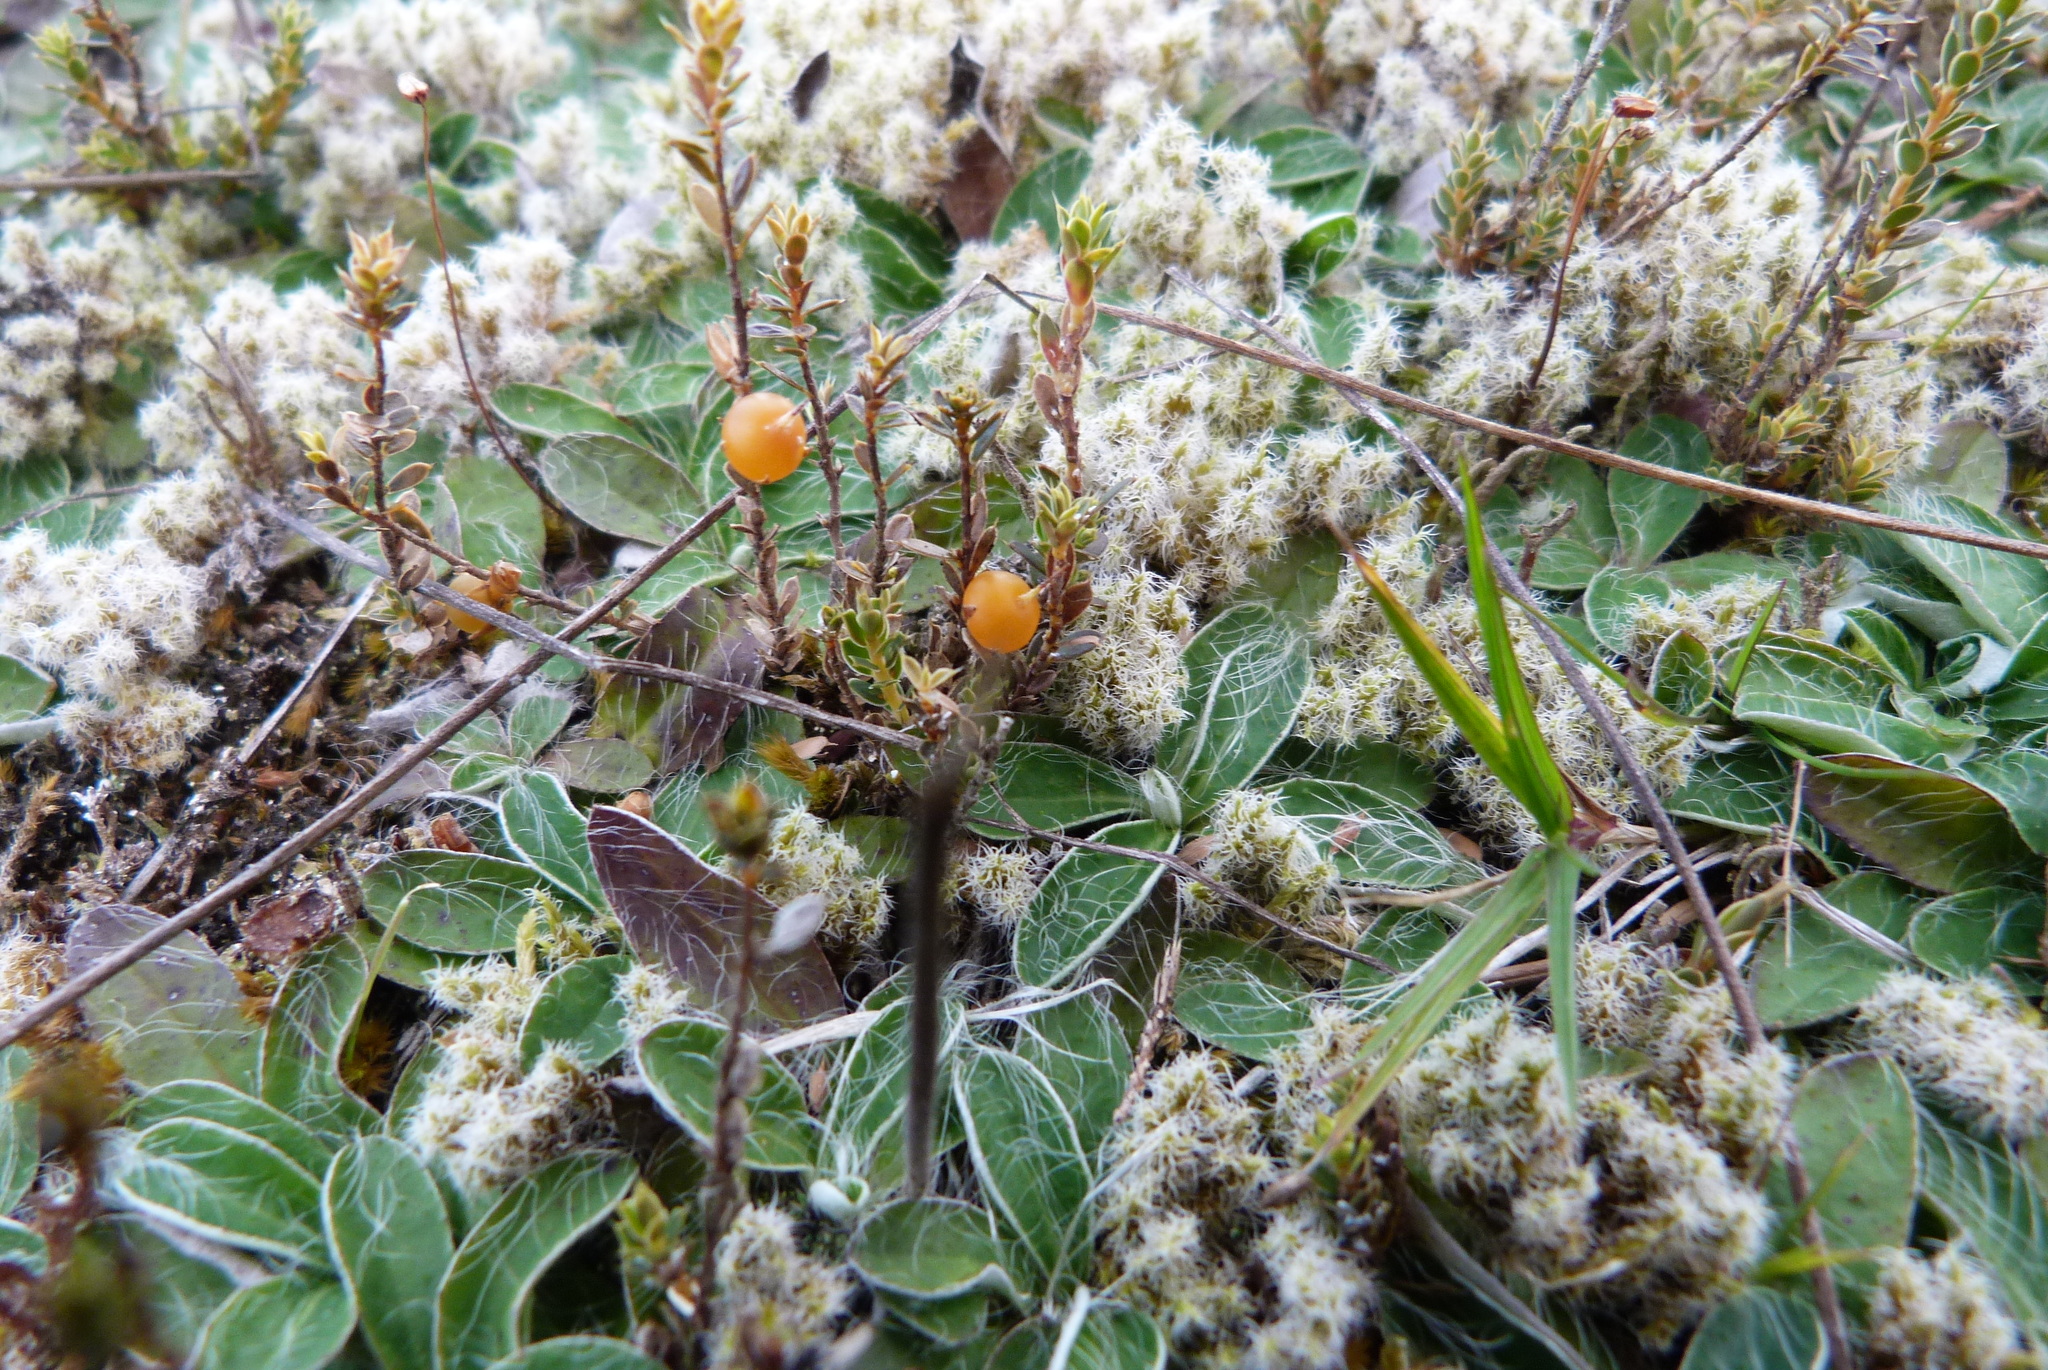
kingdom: Plantae
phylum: Tracheophyta
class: Magnoliopsida
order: Ericales
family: Ericaceae
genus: Styphelia
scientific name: Styphelia nesophila
